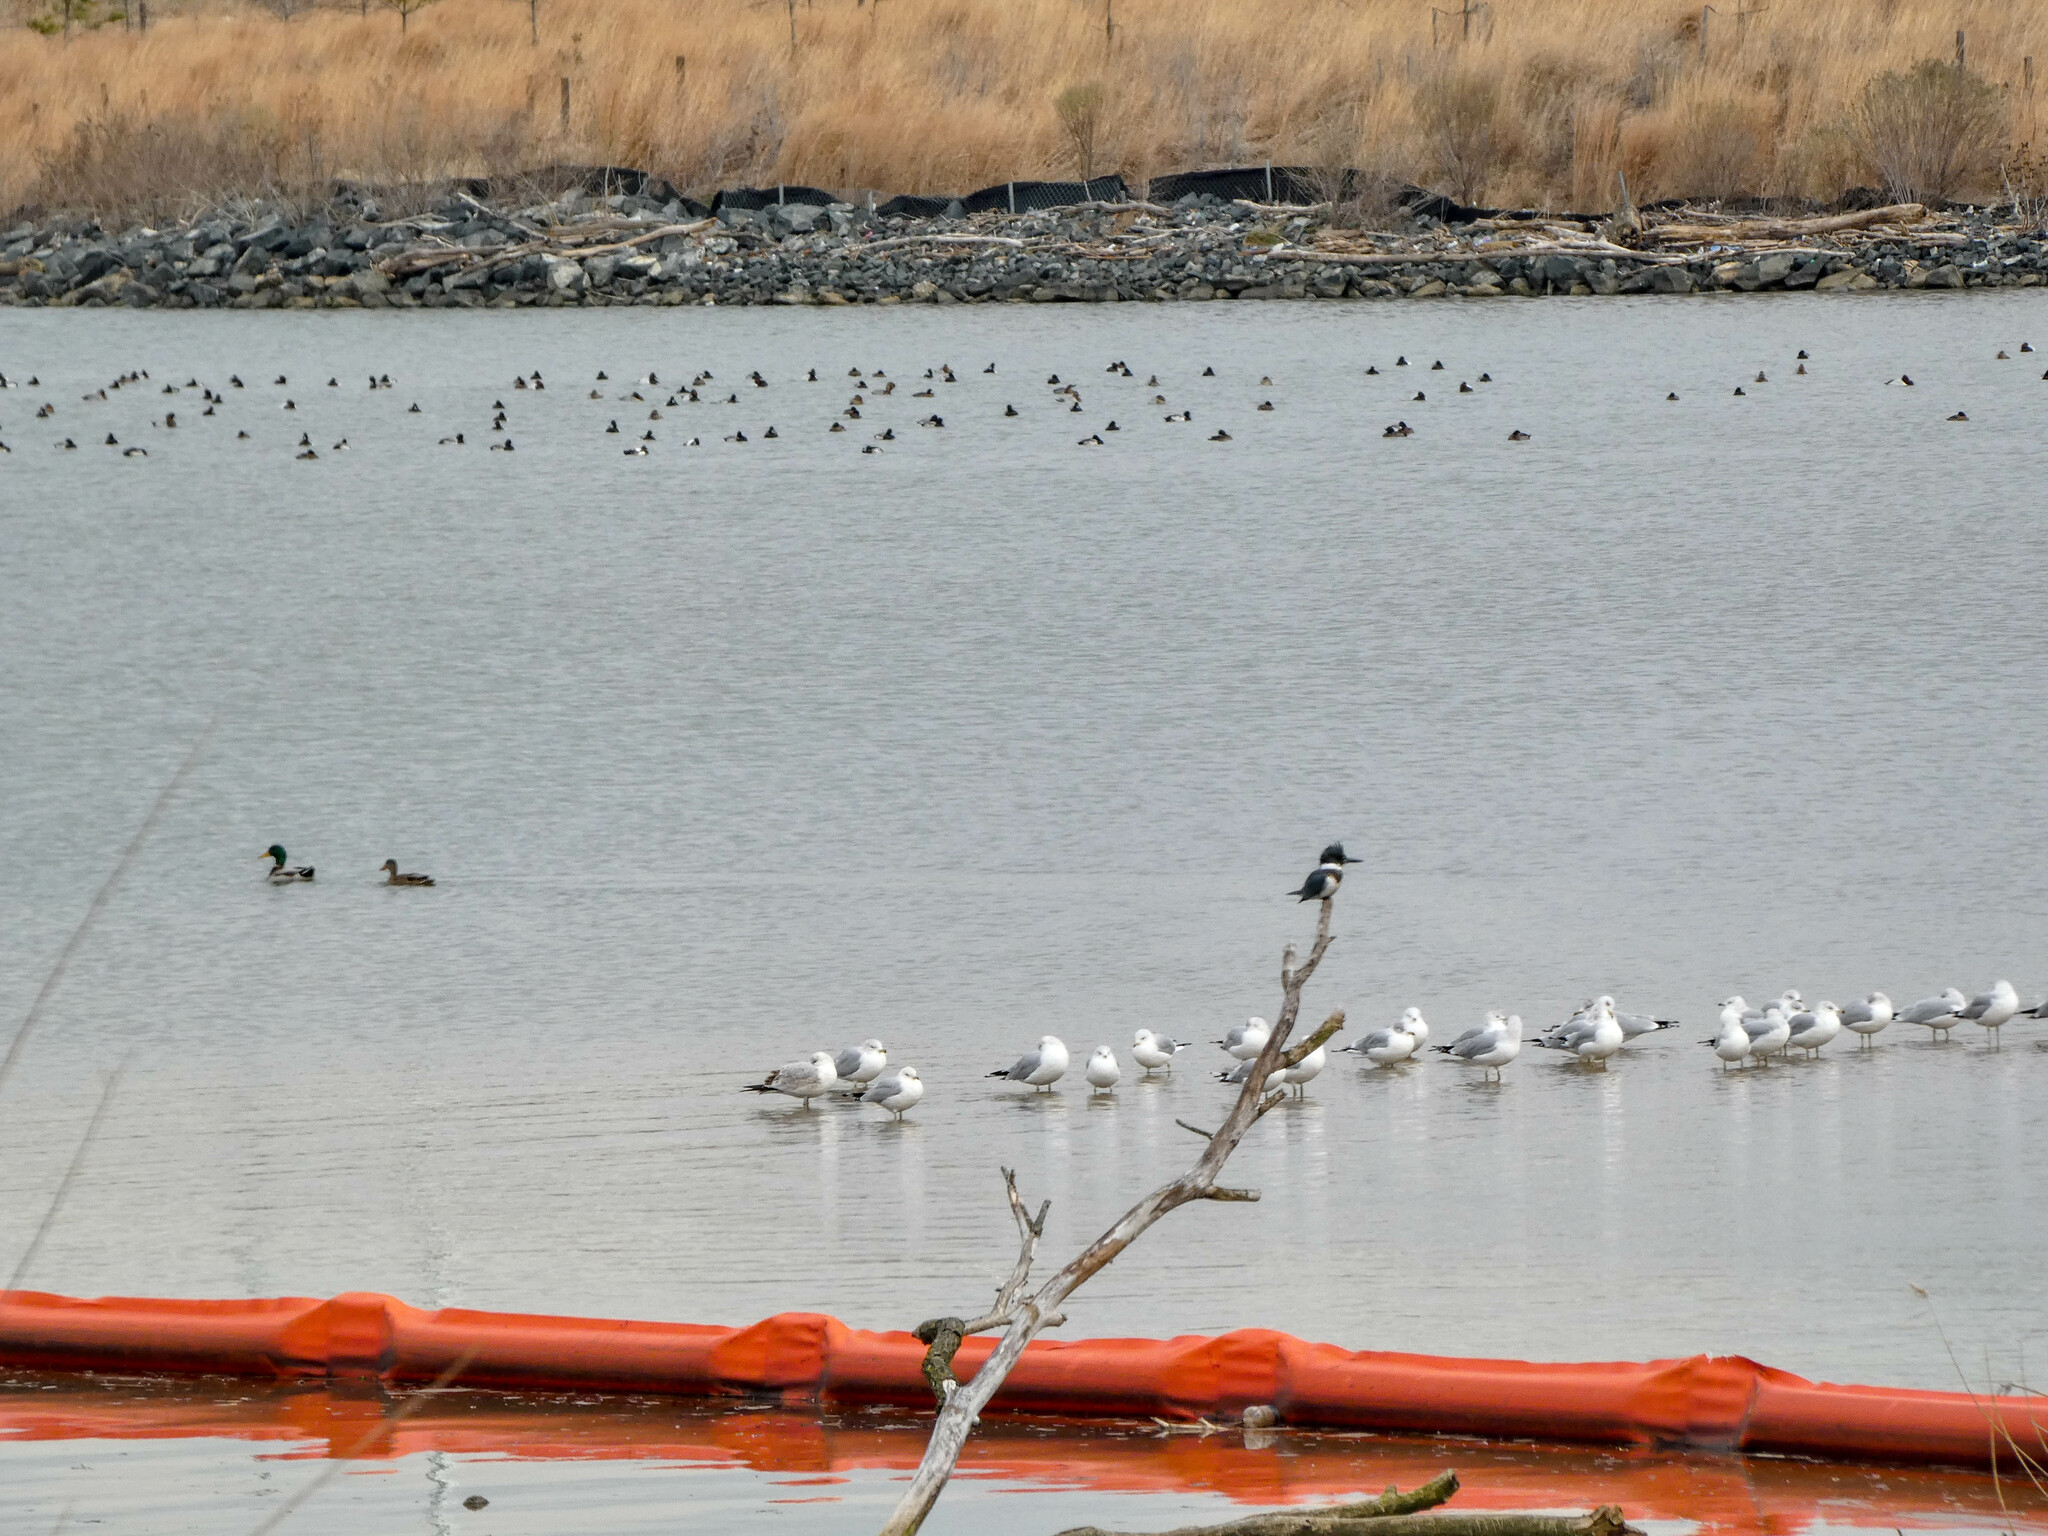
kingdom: Animalia
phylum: Chordata
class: Aves
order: Charadriiformes
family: Laridae
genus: Larus
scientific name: Larus delawarensis
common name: Ring-billed gull
